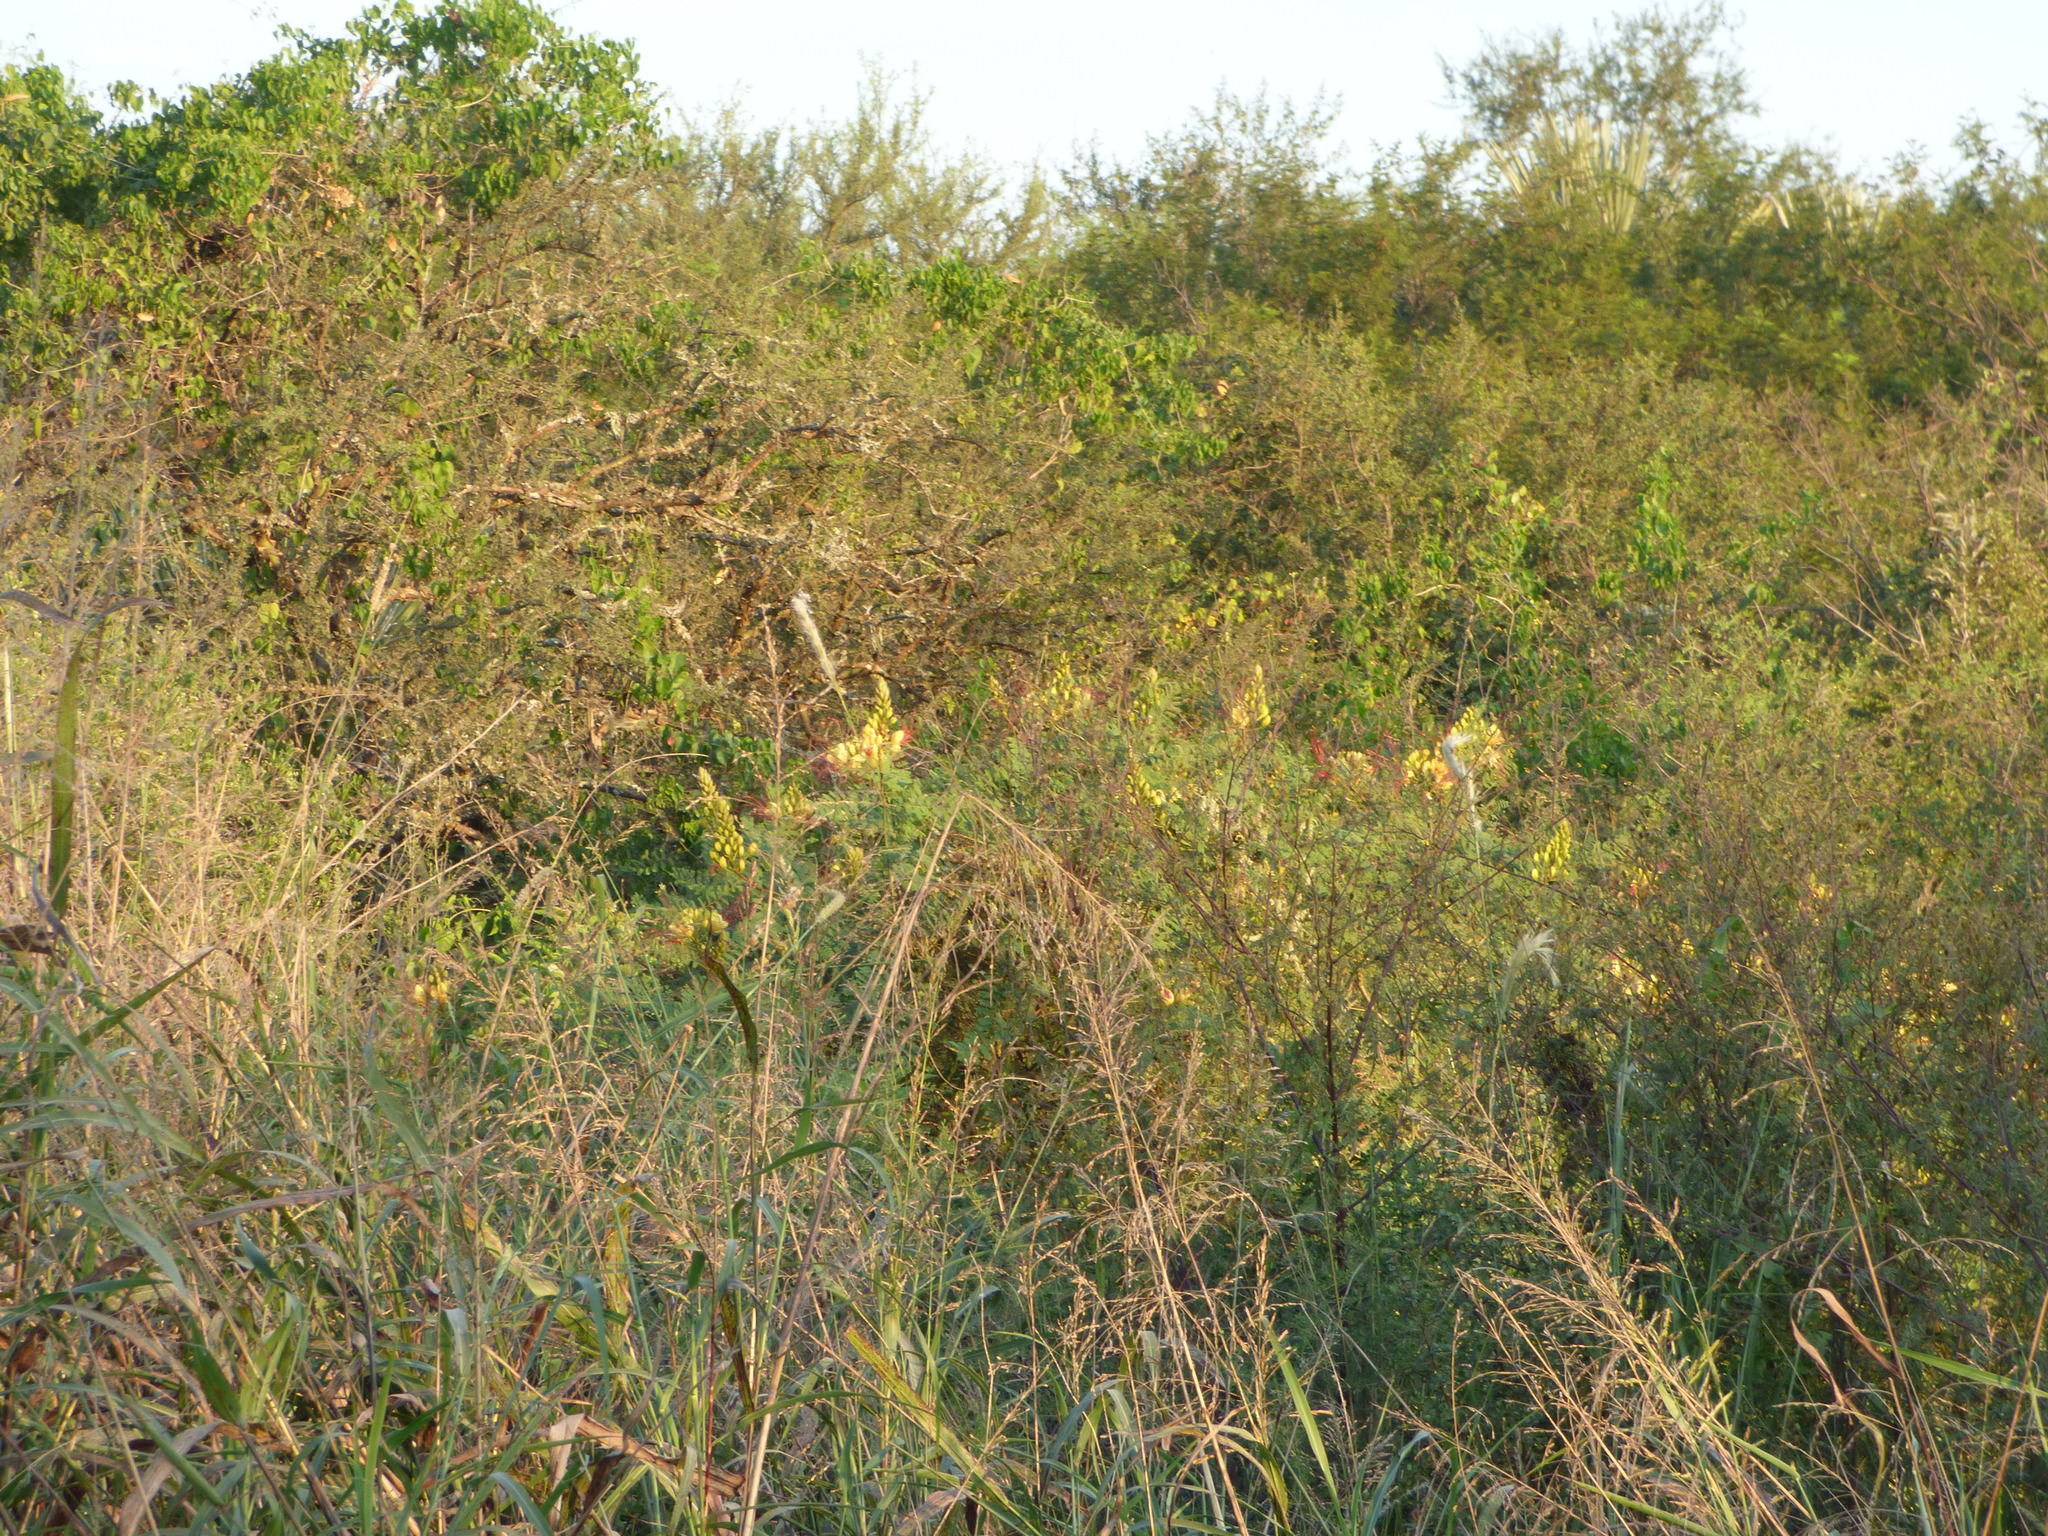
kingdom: Plantae
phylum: Tracheophyta
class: Magnoliopsida
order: Fabales
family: Fabaceae
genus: Erythrostemon
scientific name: Erythrostemon gilliesii
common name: Bird-of-paradise shrub
